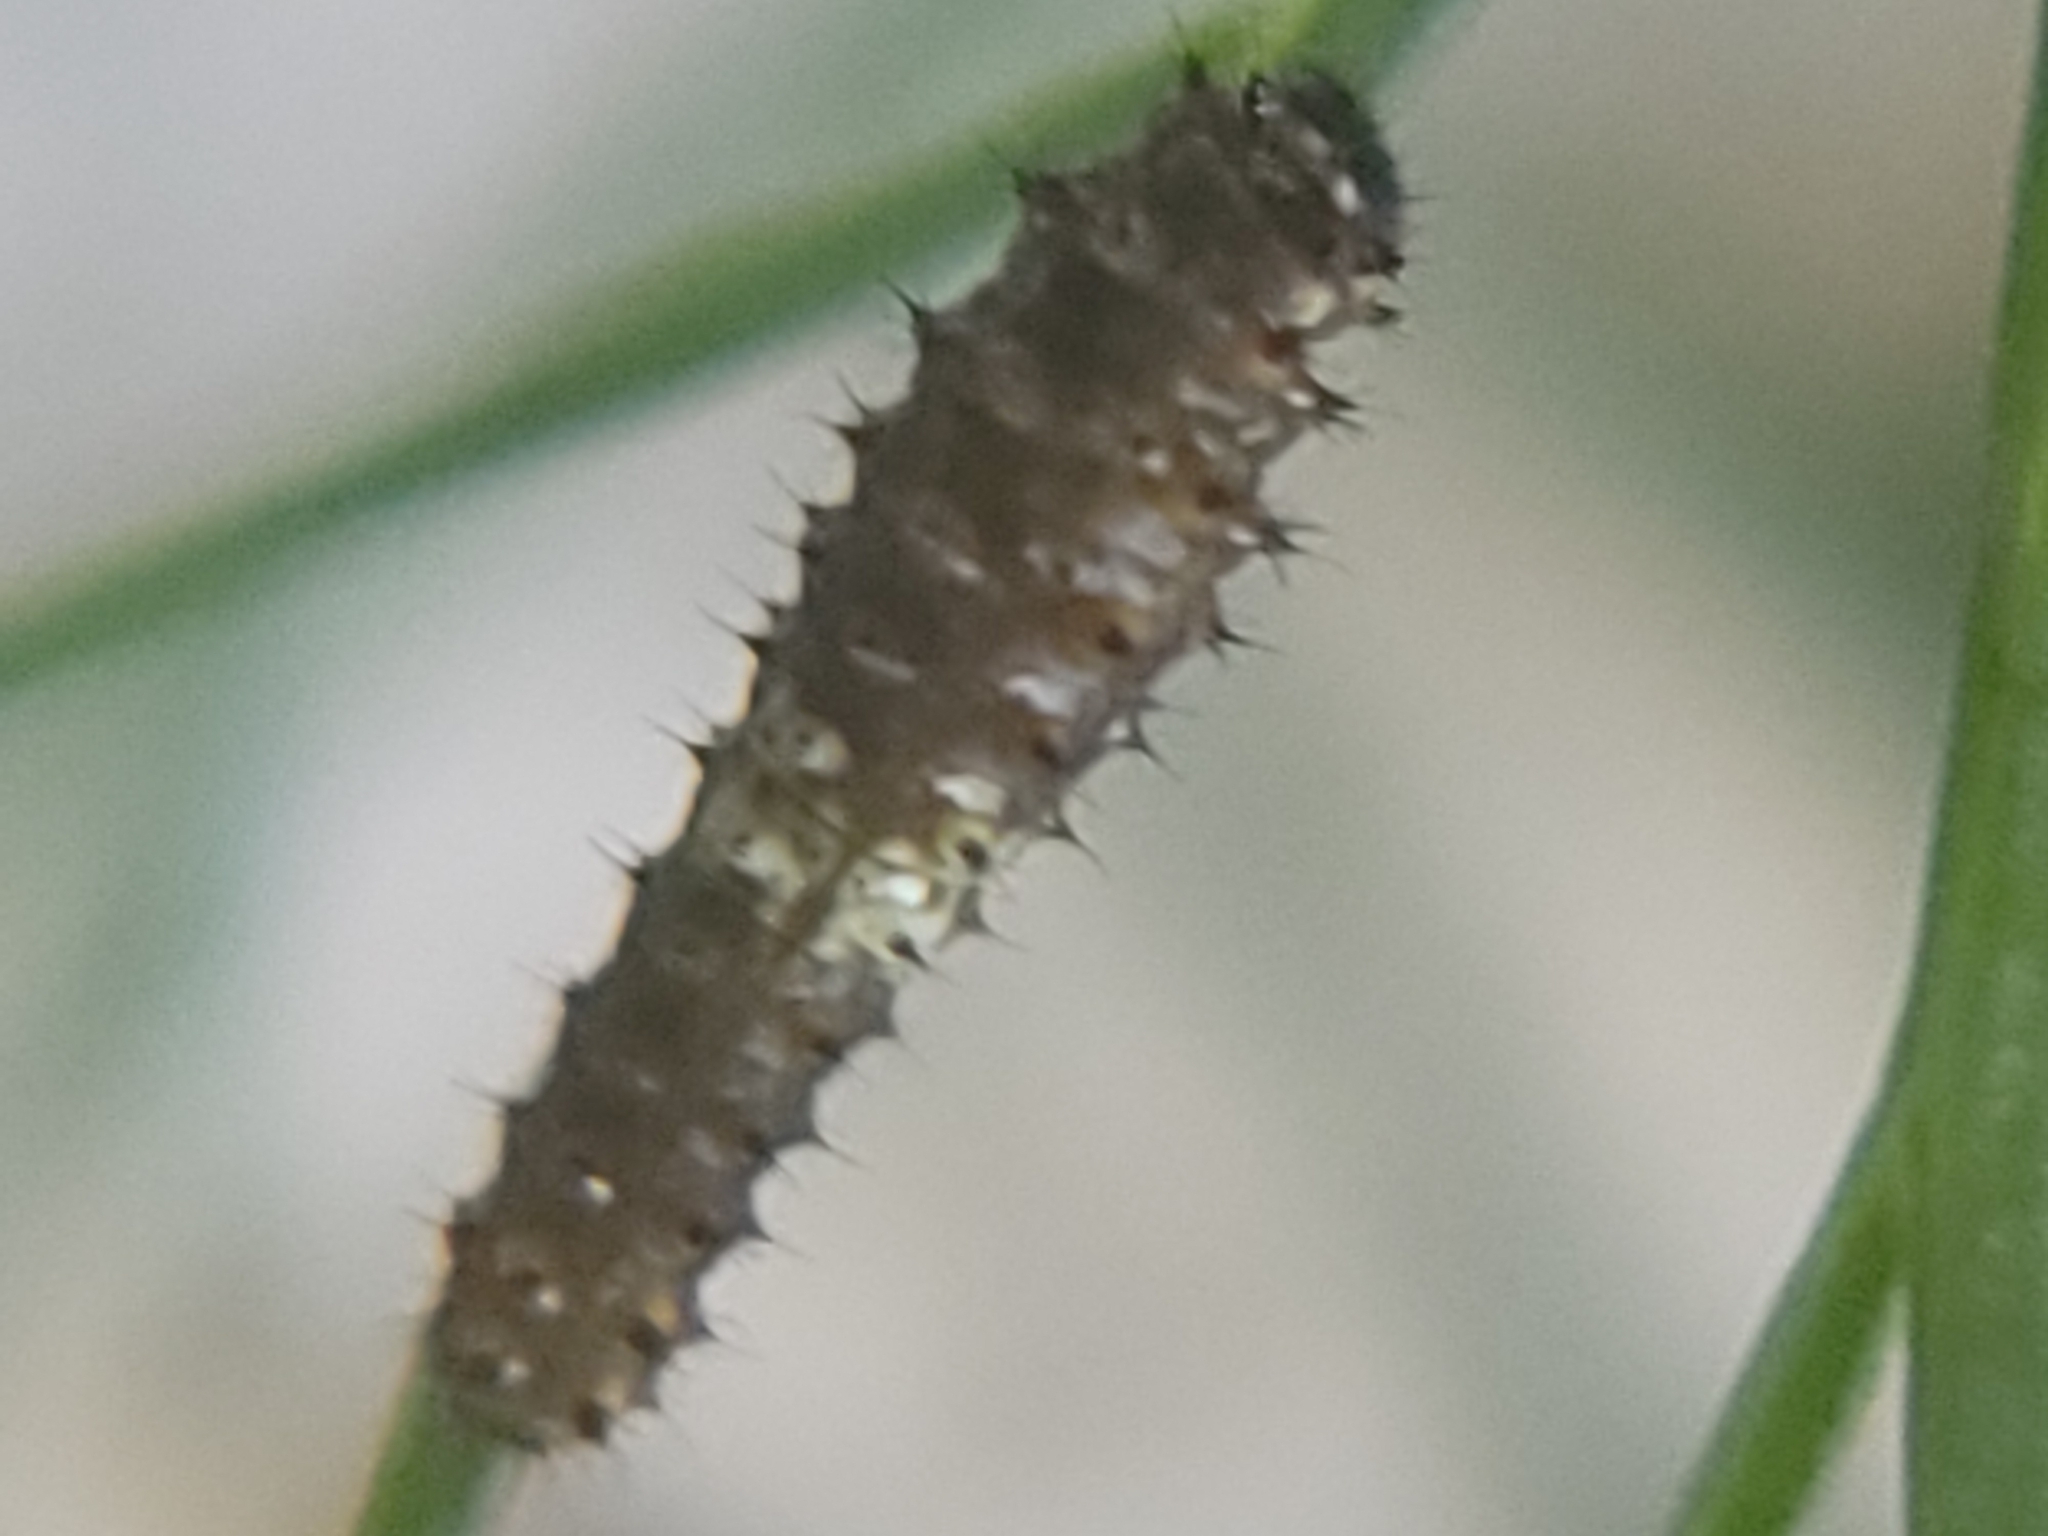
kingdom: Animalia
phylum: Arthropoda
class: Insecta
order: Lepidoptera
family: Papilionidae
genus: Papilio
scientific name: Papilio polyxenes
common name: Black swallowtail
